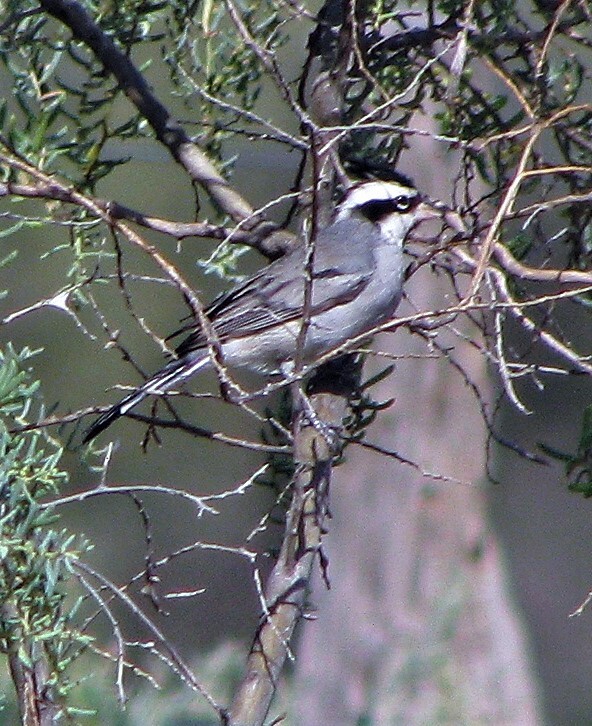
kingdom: Animalia
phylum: Chordata
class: Aves
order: Passeriformes
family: Thraupidae
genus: Lophospingus
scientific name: Lophospingus pusillus
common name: Black-crested finch
